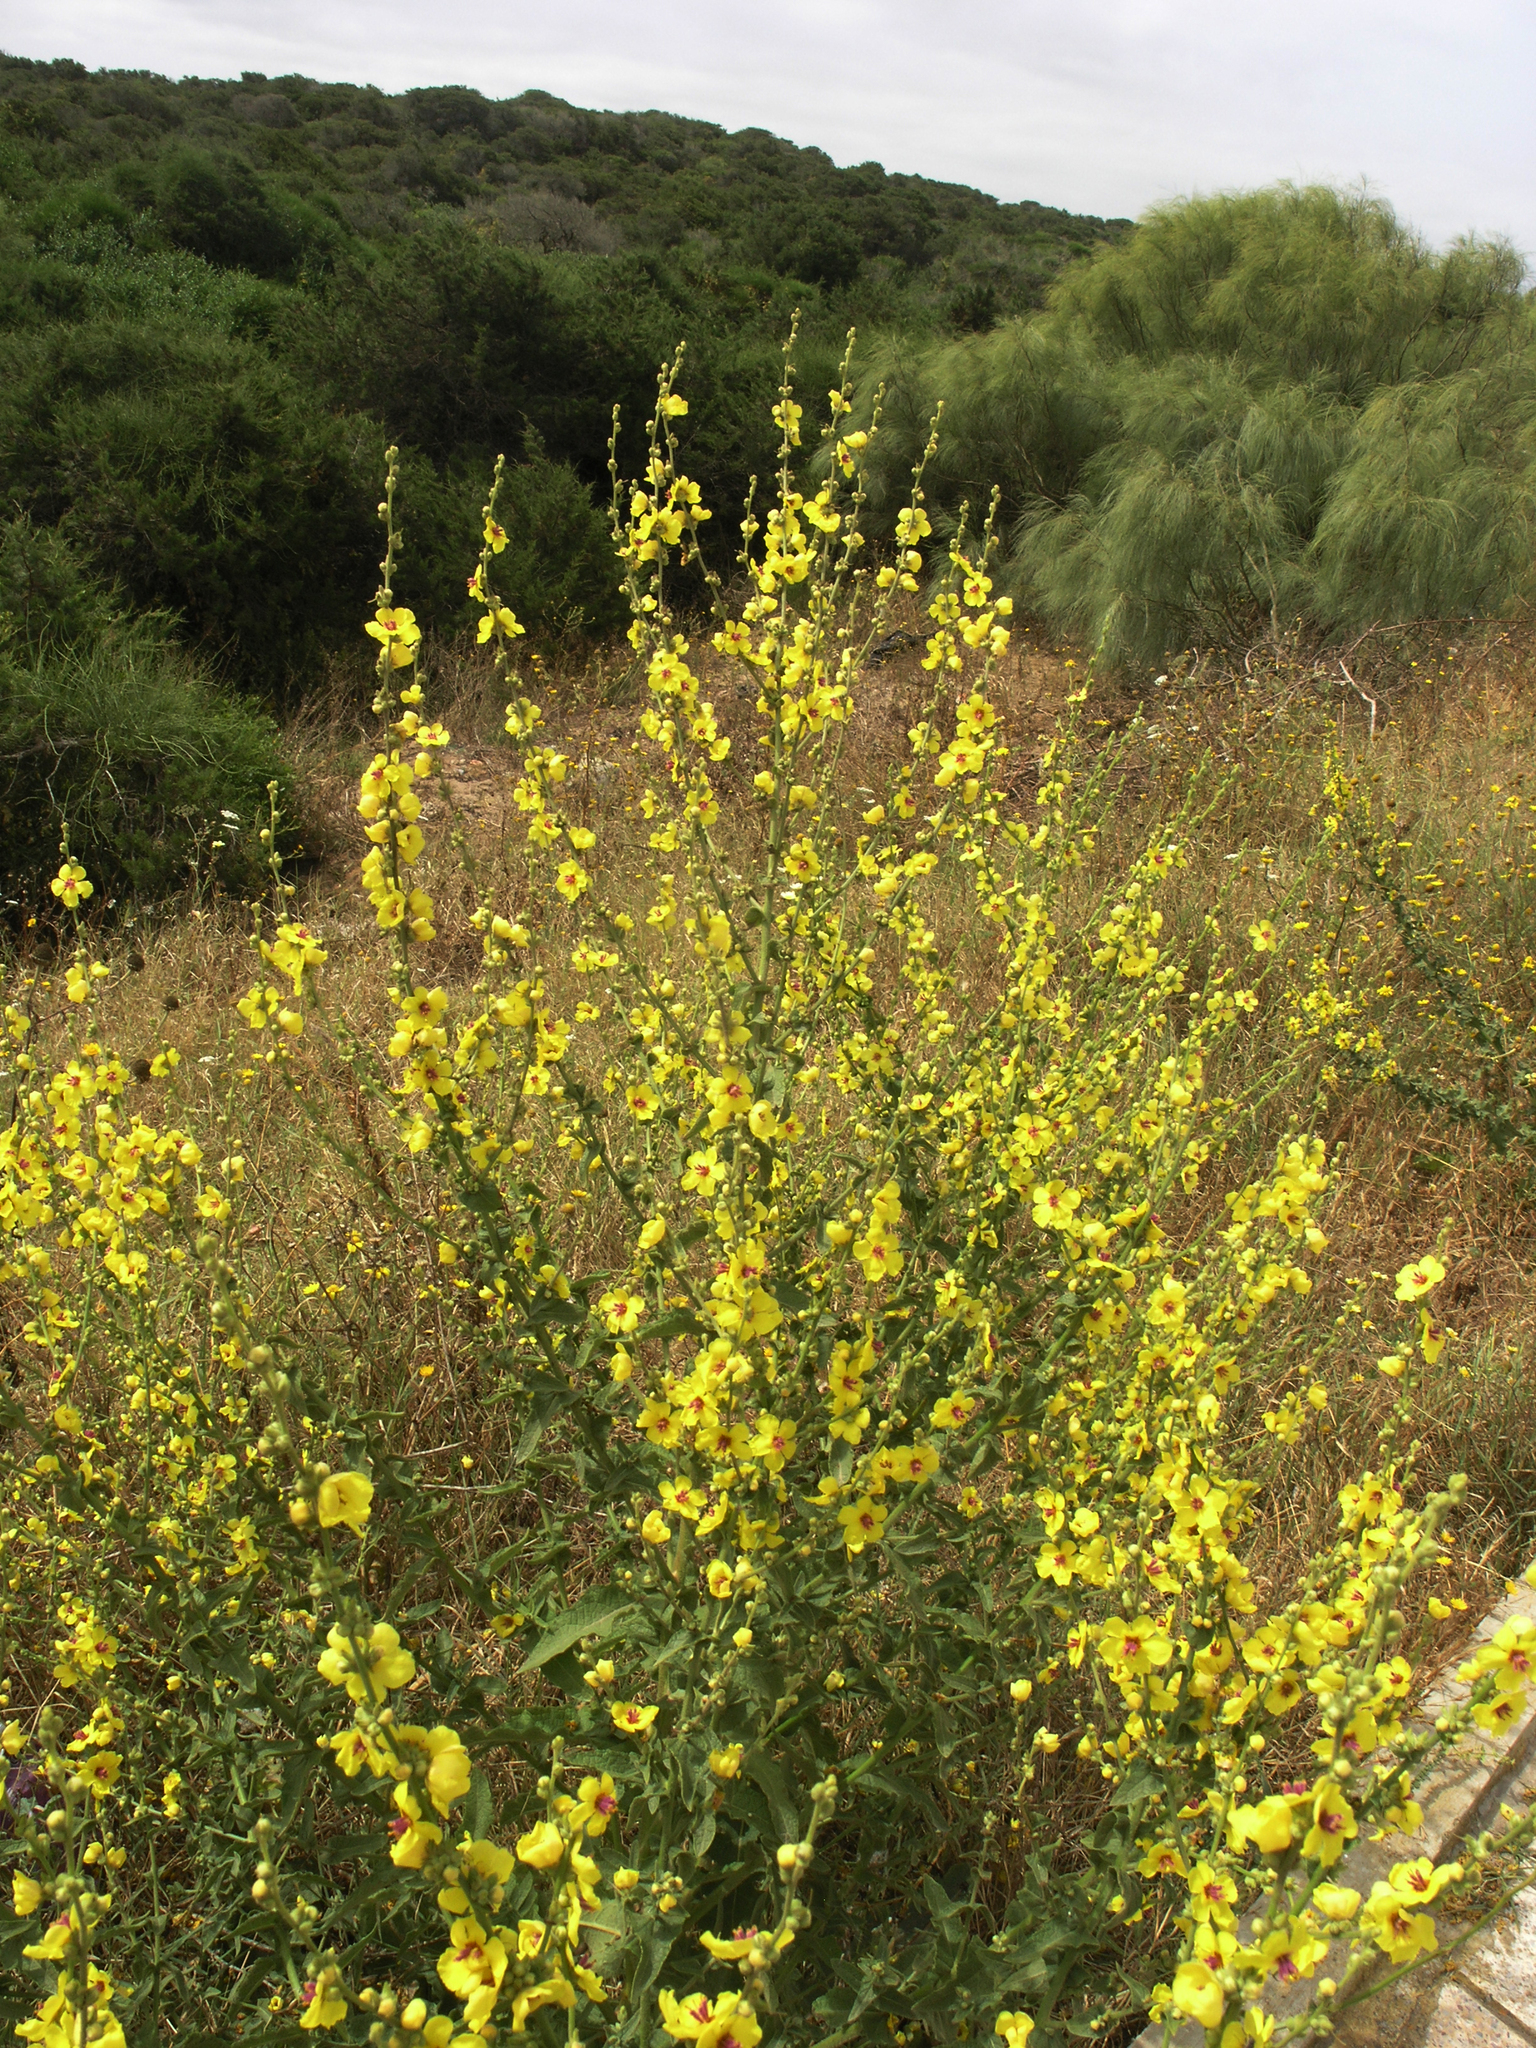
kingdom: Plantae
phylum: Tracheophyta
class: Magnoliopsida
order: Lamiales
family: Scrophulariaceae
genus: Verbascum
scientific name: Verbascum sinuatum
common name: Wavyleaf mullein
